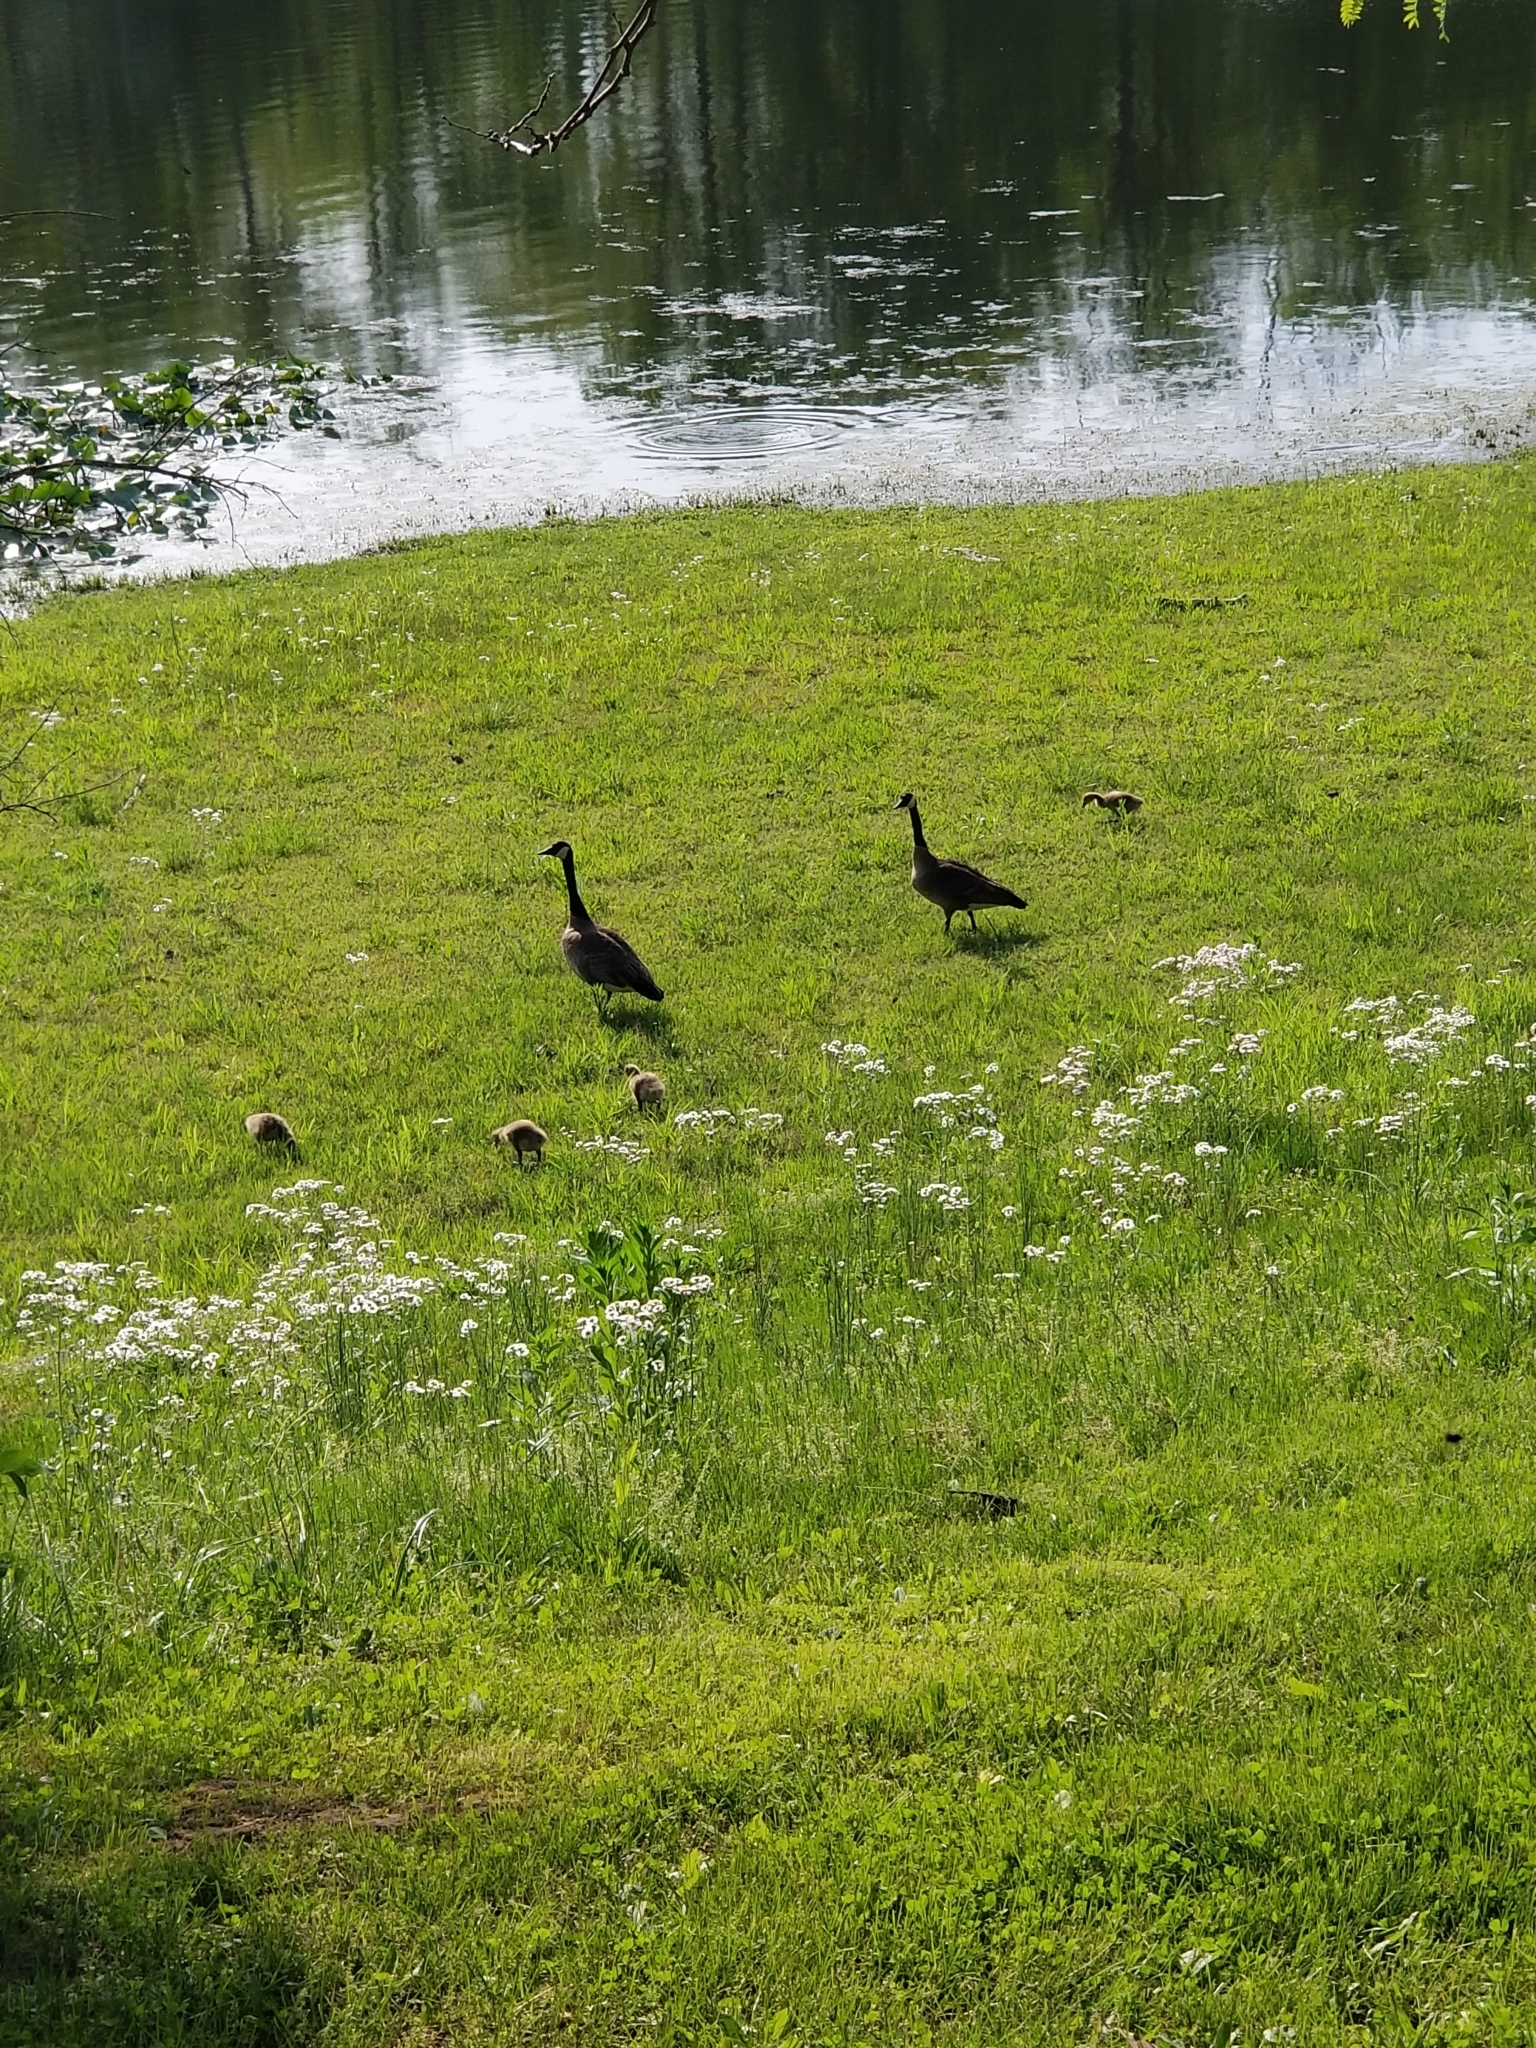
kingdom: Animalia
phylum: Chordata
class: Aves
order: Anseriformes
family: Anatidae
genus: Branta
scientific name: Branta canadensis
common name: Canada goose
